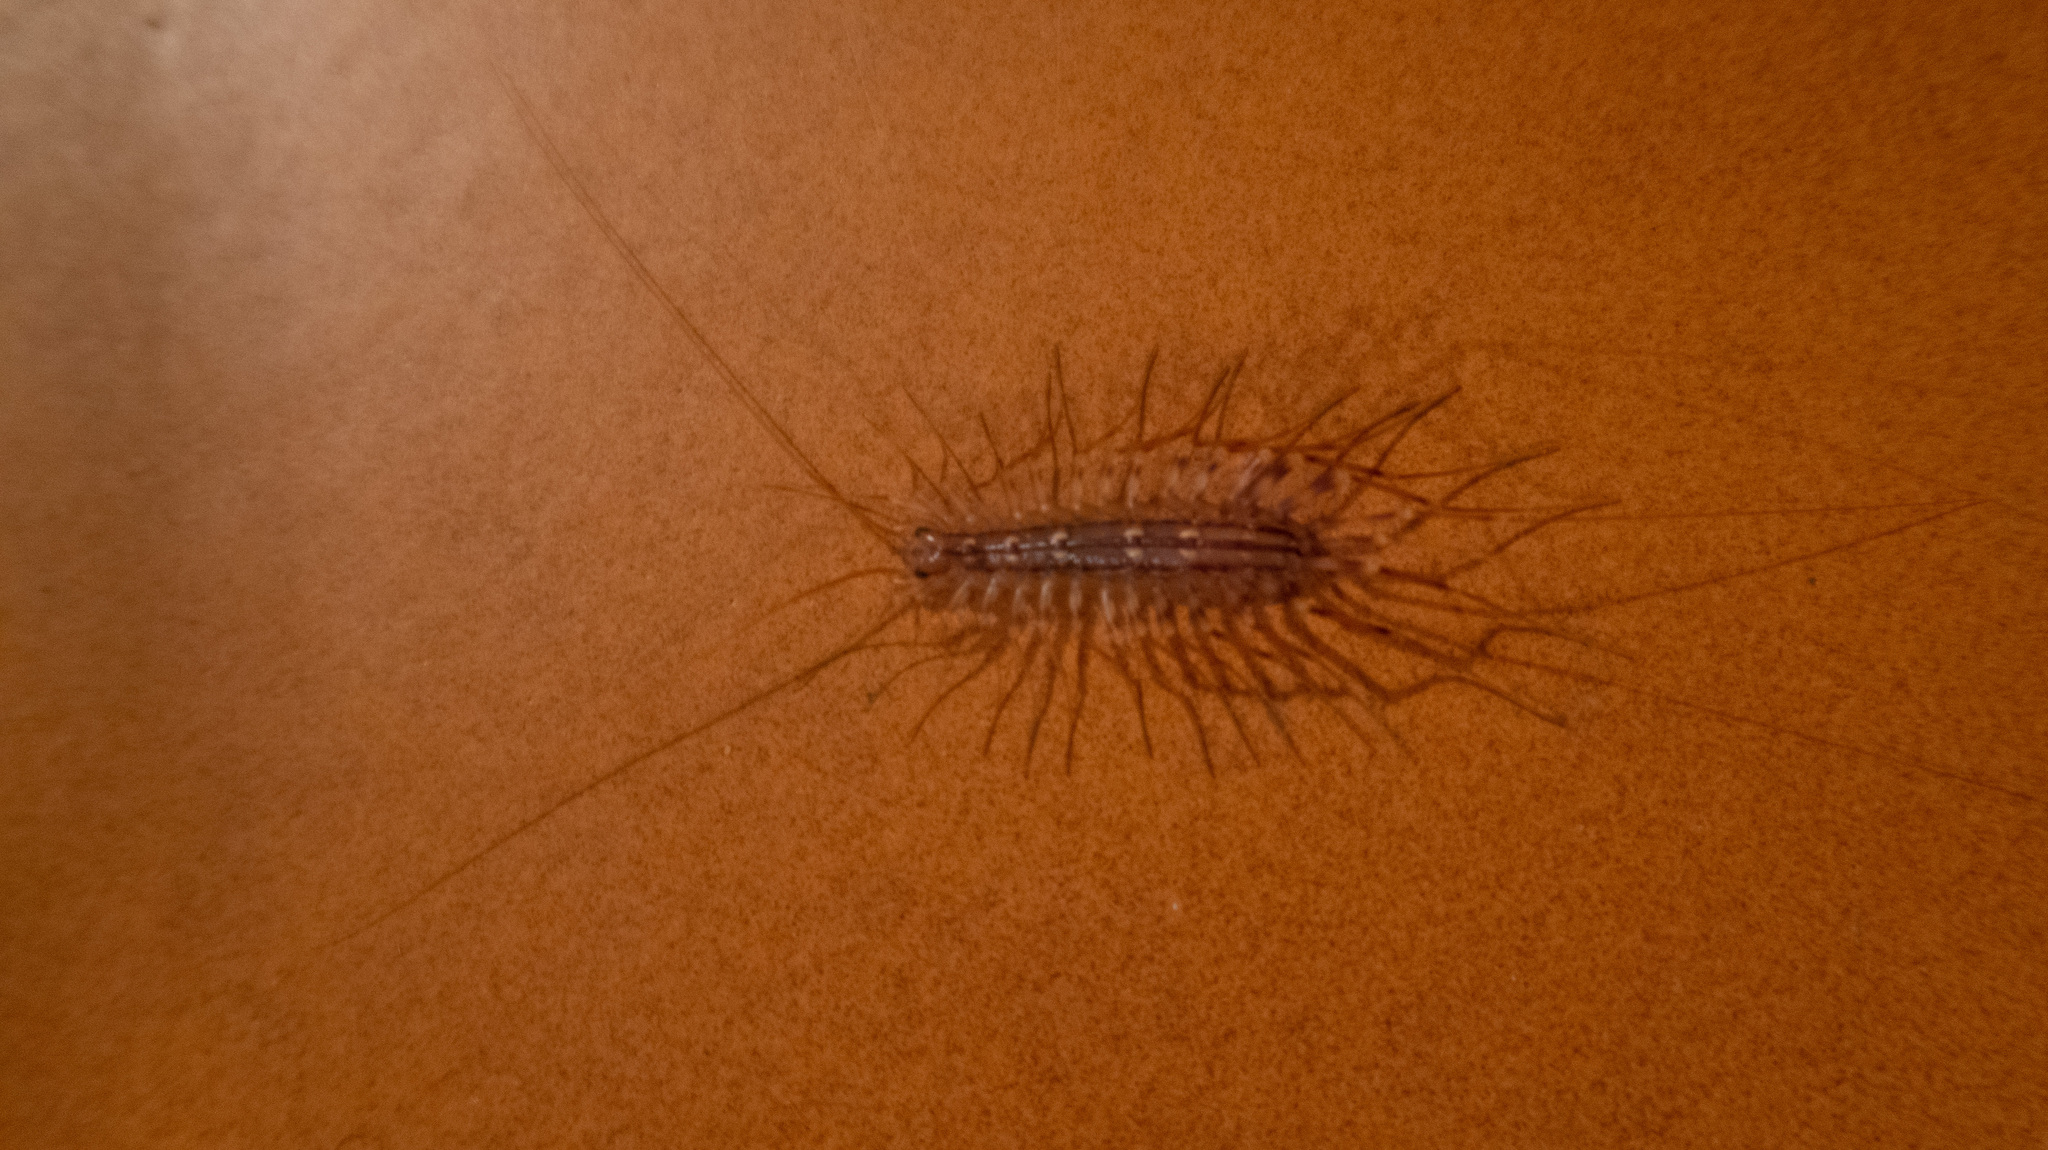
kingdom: Animalia
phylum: Arthropoda
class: Chilopoda
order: Scutigeromorpha
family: Scutigeridae
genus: Scutigera
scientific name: Scutigera coleoptrata
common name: House centipede
